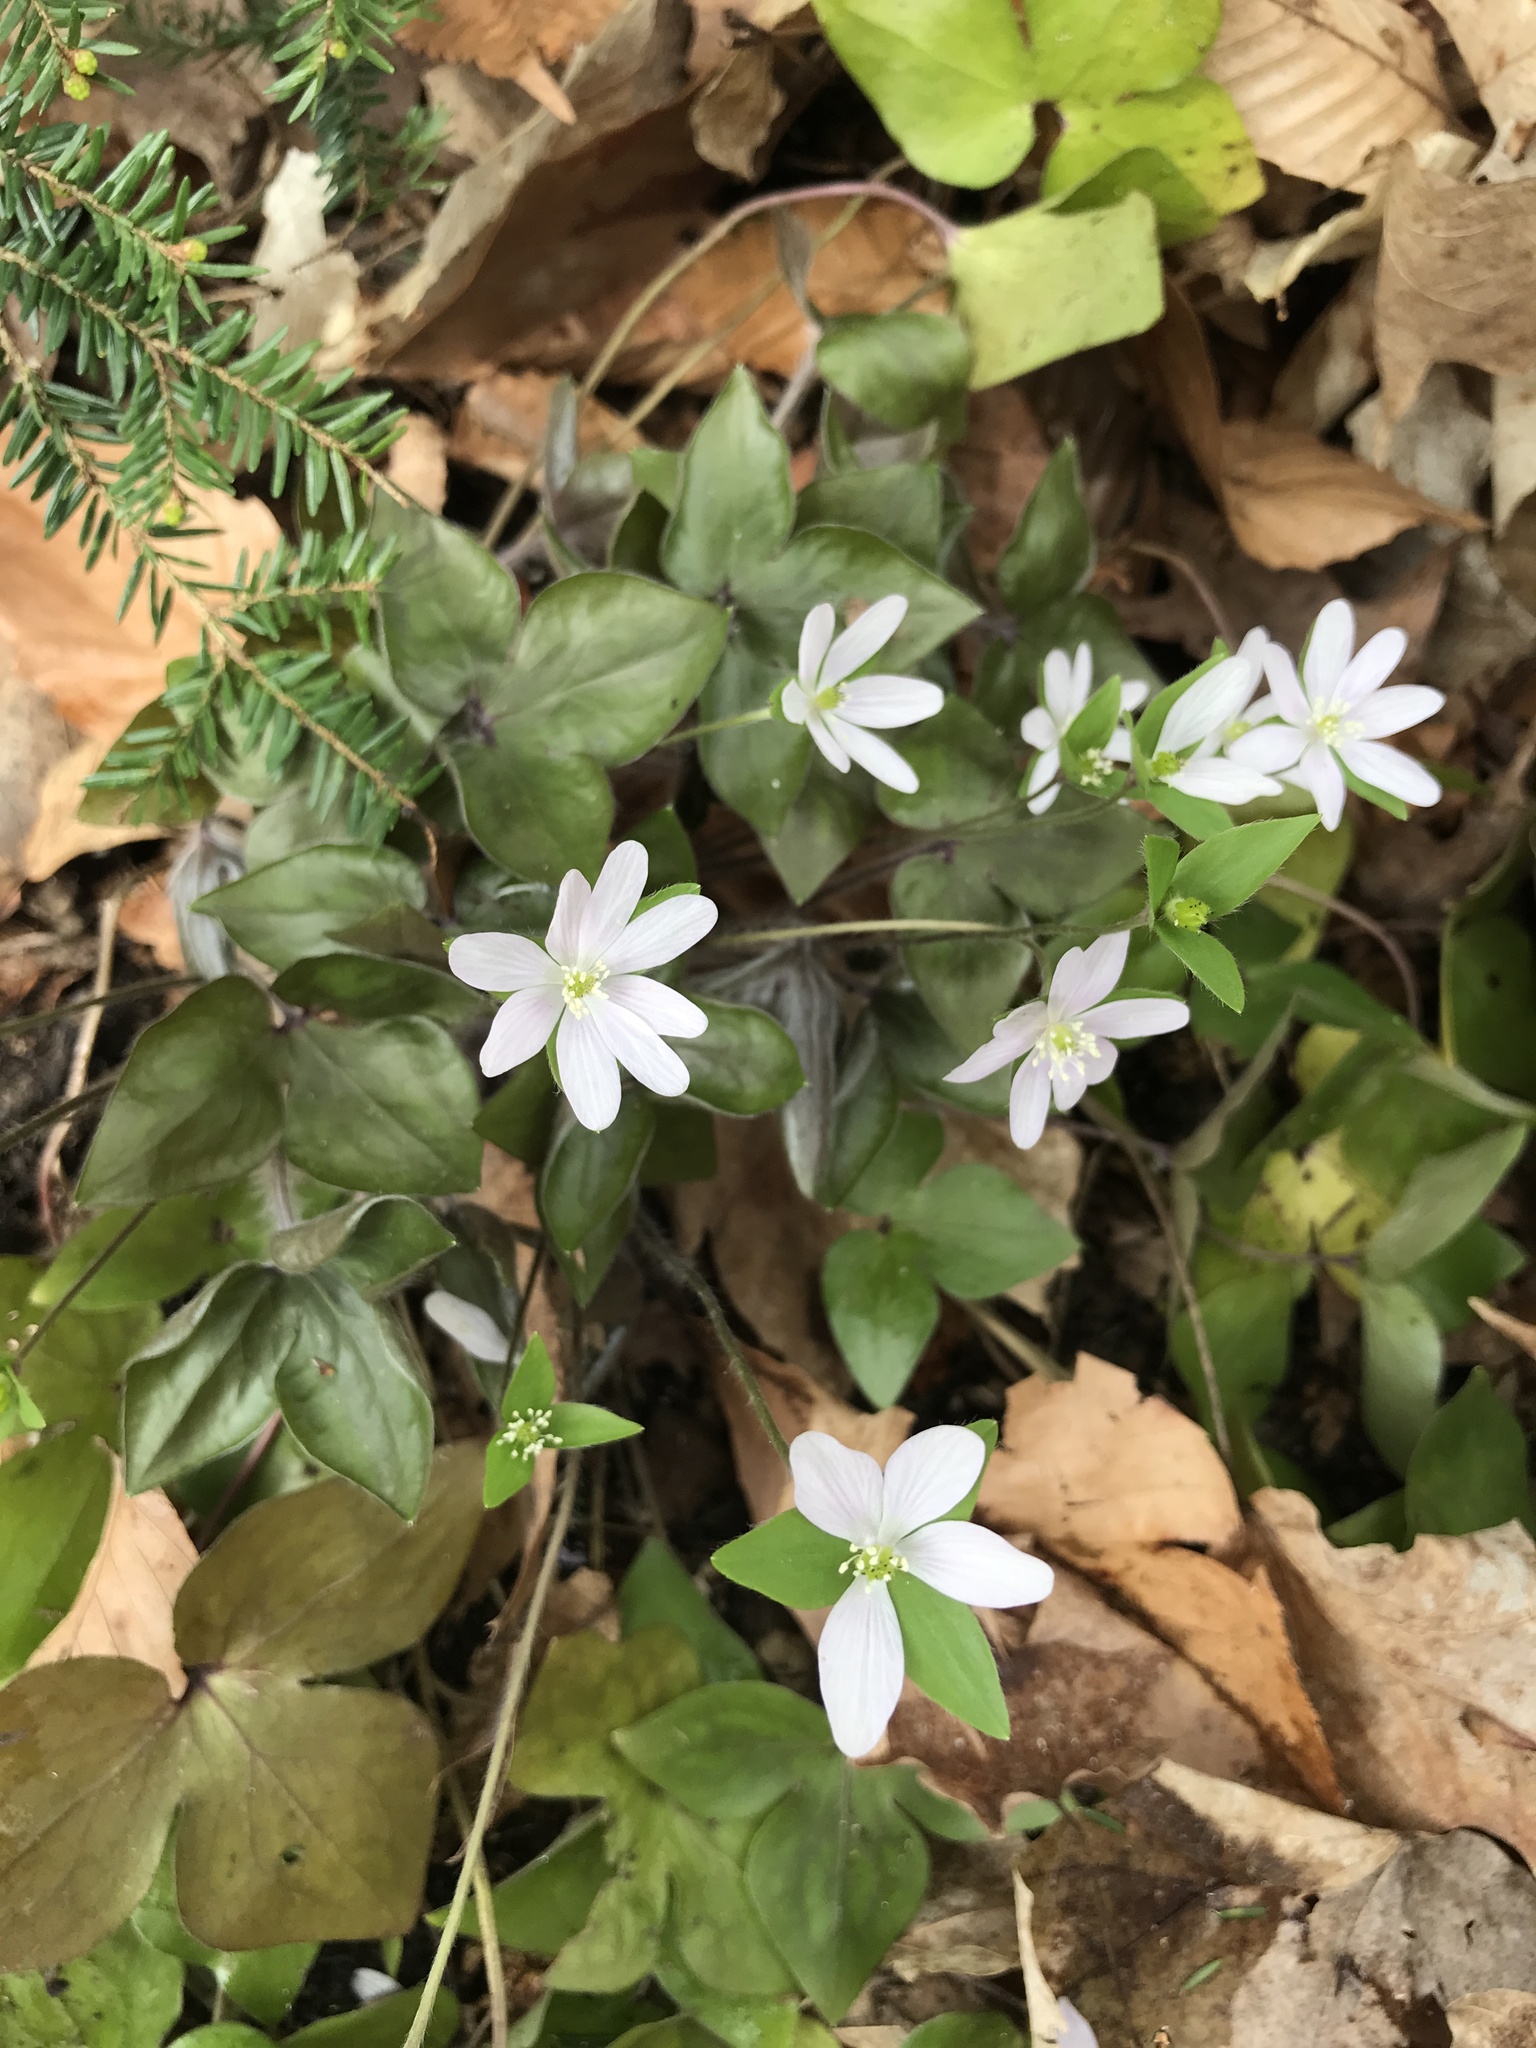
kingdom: Plantae
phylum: Tracheophyta
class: Magnoliopsida
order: Ranunculales
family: Ranunculaceae
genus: Hepatica
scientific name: Hepatica acutiloba
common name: Sharp-lobed hepatica
